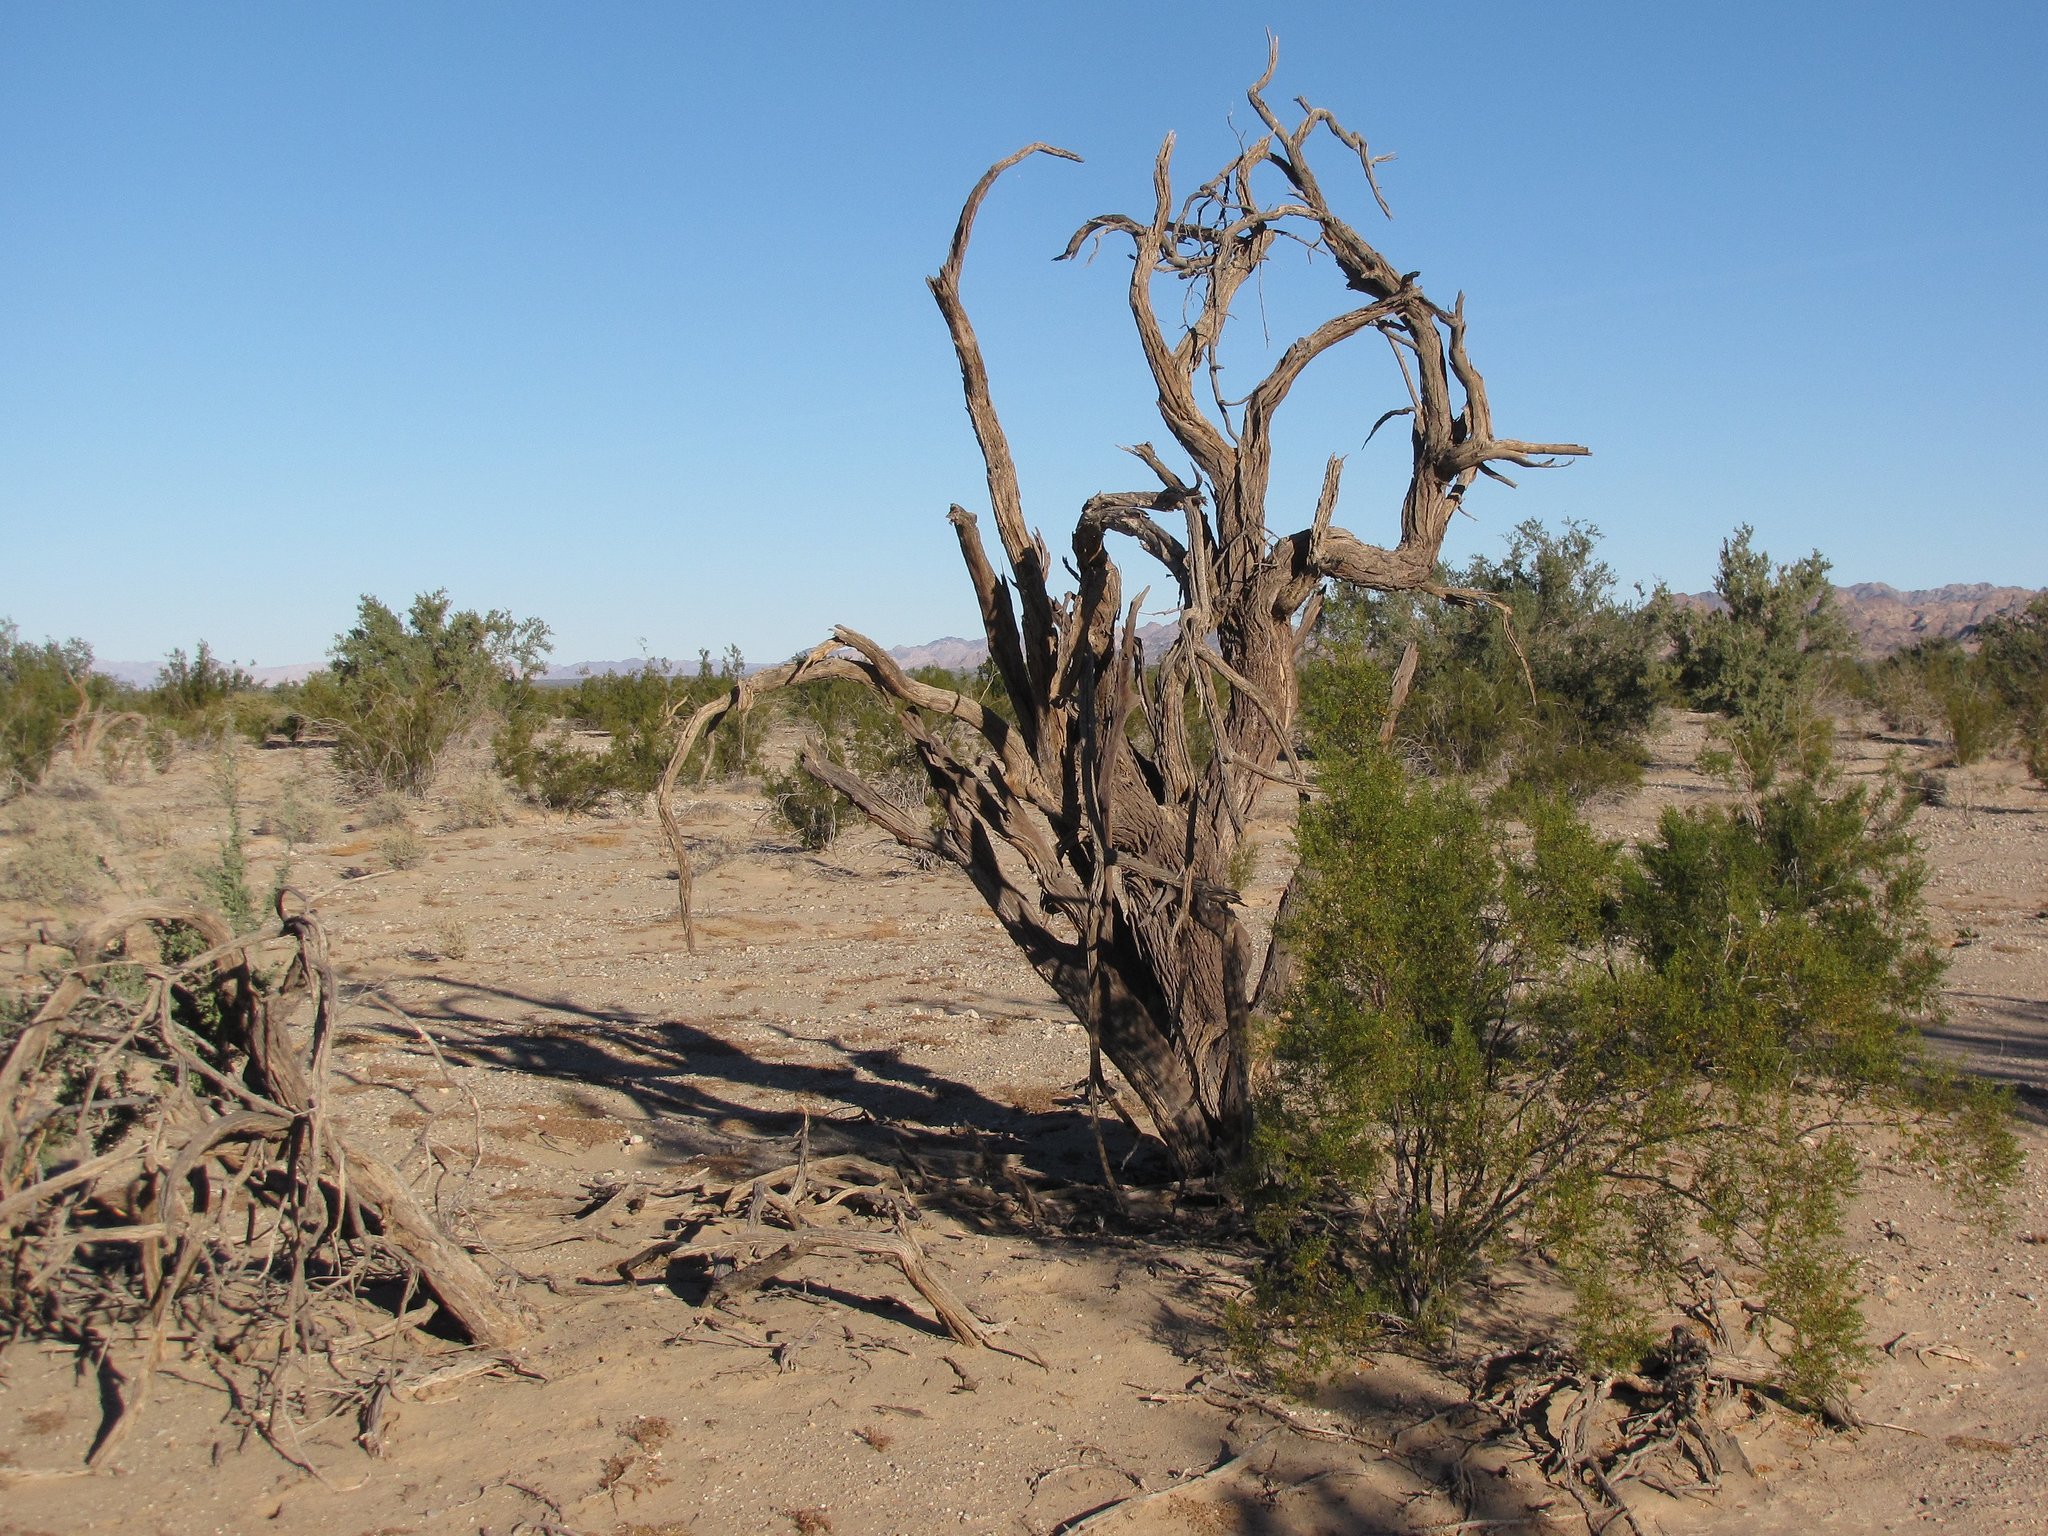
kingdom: Plantae
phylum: Tracheophyta
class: Magnoliopsida
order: Fabales
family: Fabaceae
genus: Olneya
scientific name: Olneya tesota
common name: Desert ironwood
